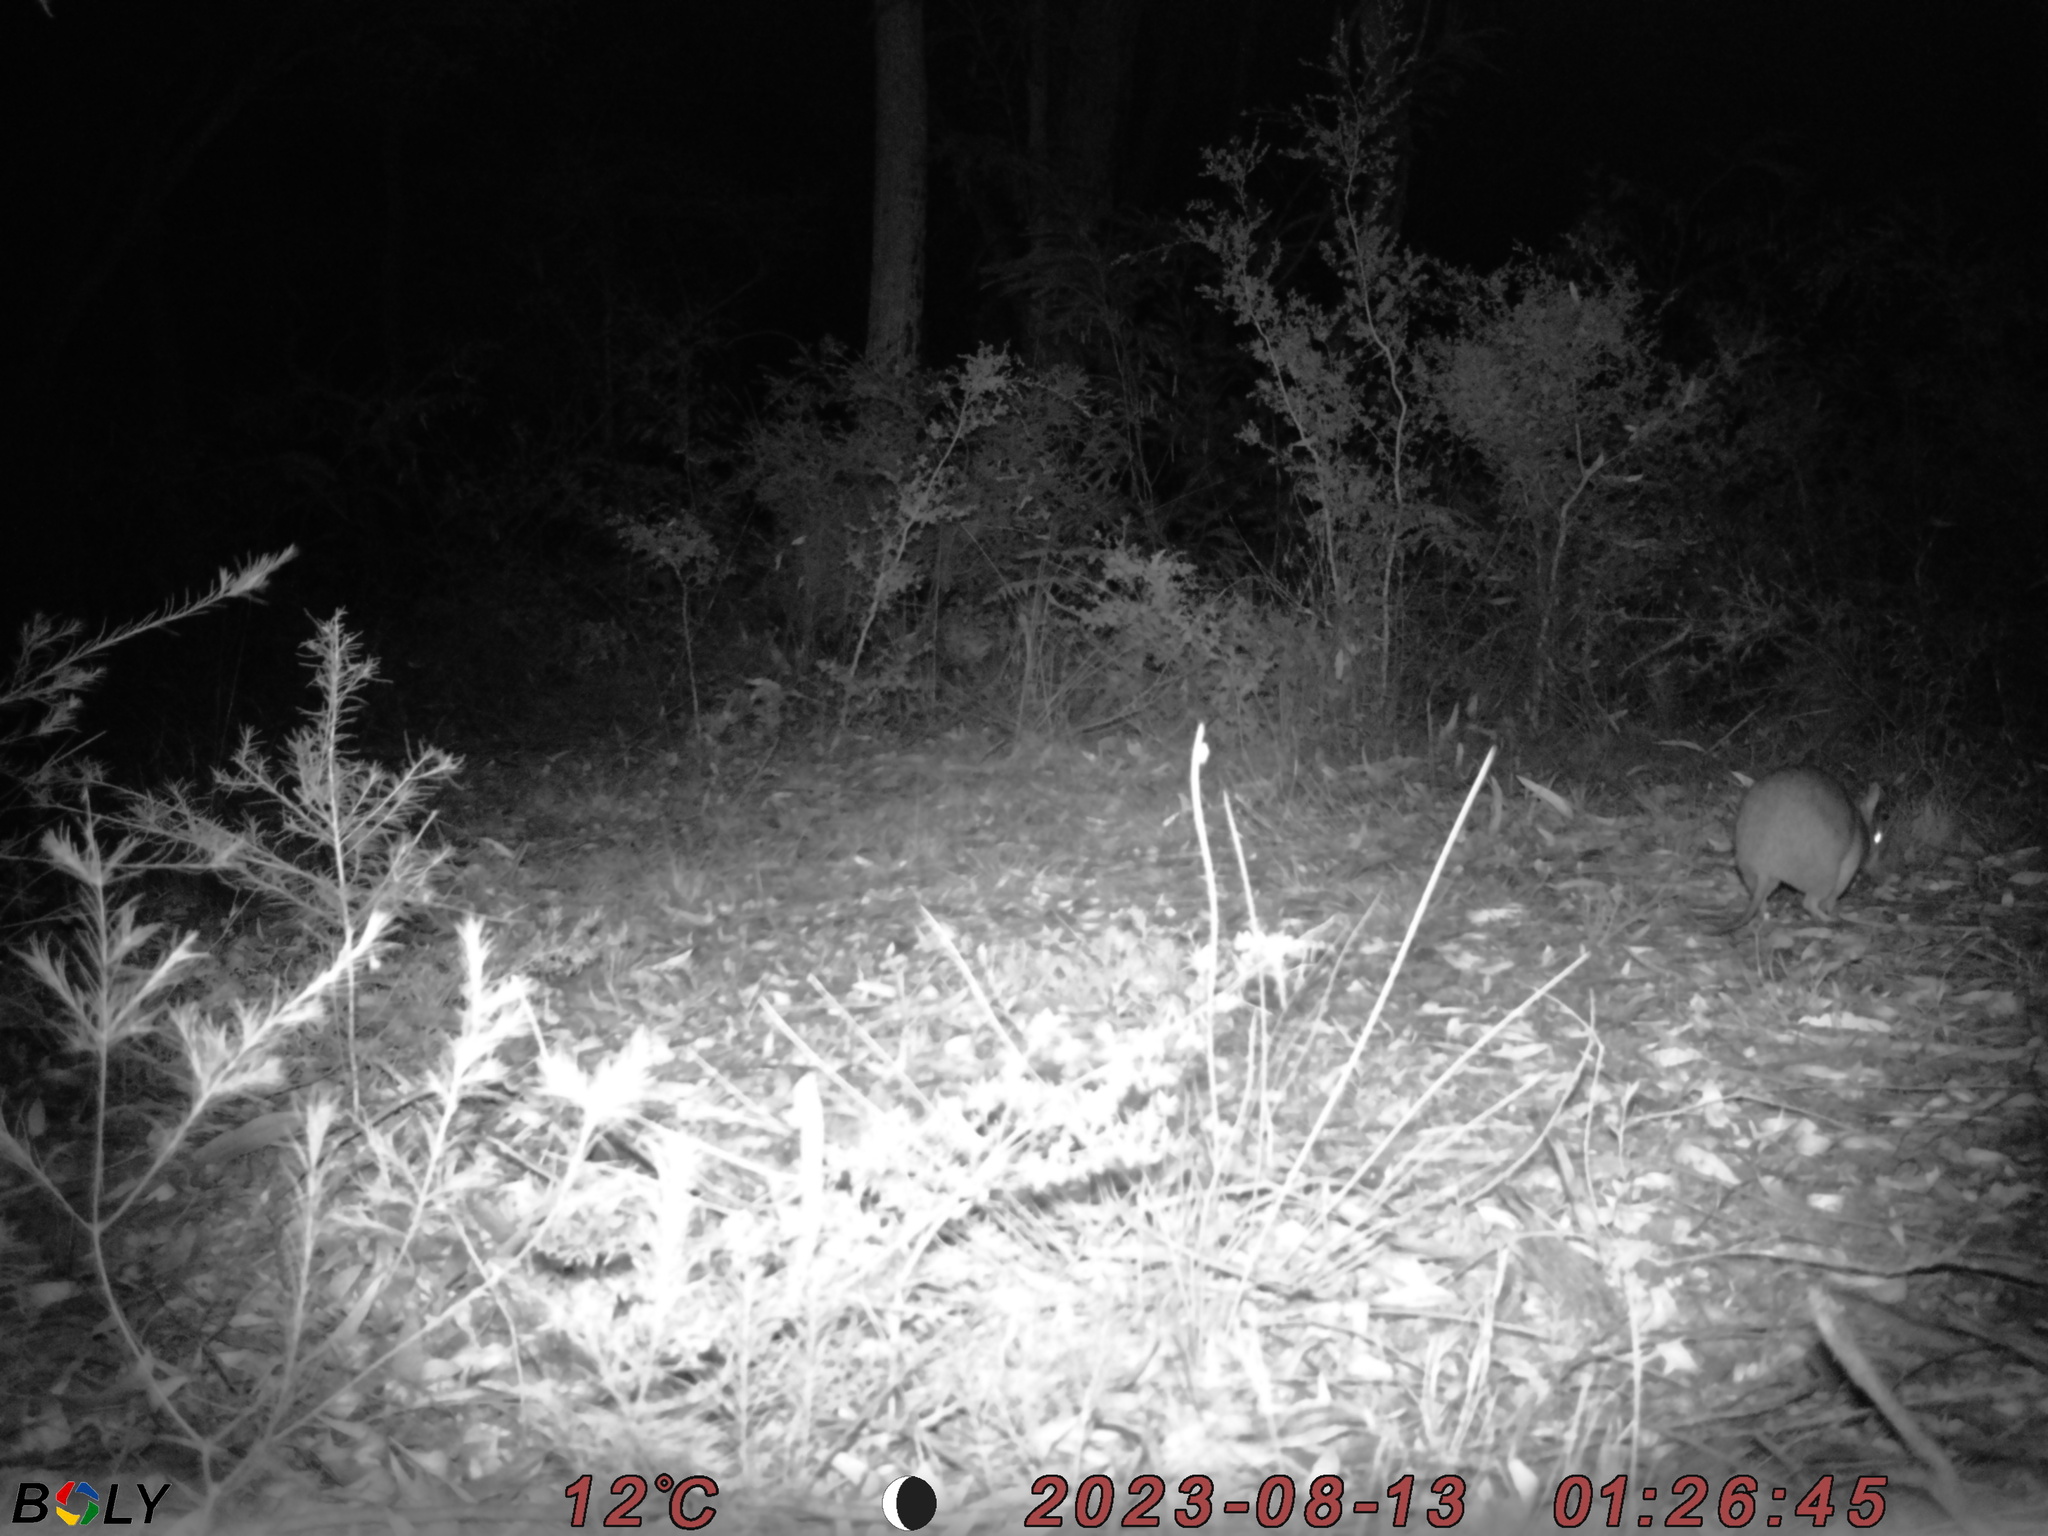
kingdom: Animalia
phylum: Chordata
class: Mammalia
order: Peramelemorphia
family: Peramelidae
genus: Perameles
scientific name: Perameles nasuta
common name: Long-nosed bandicoot
